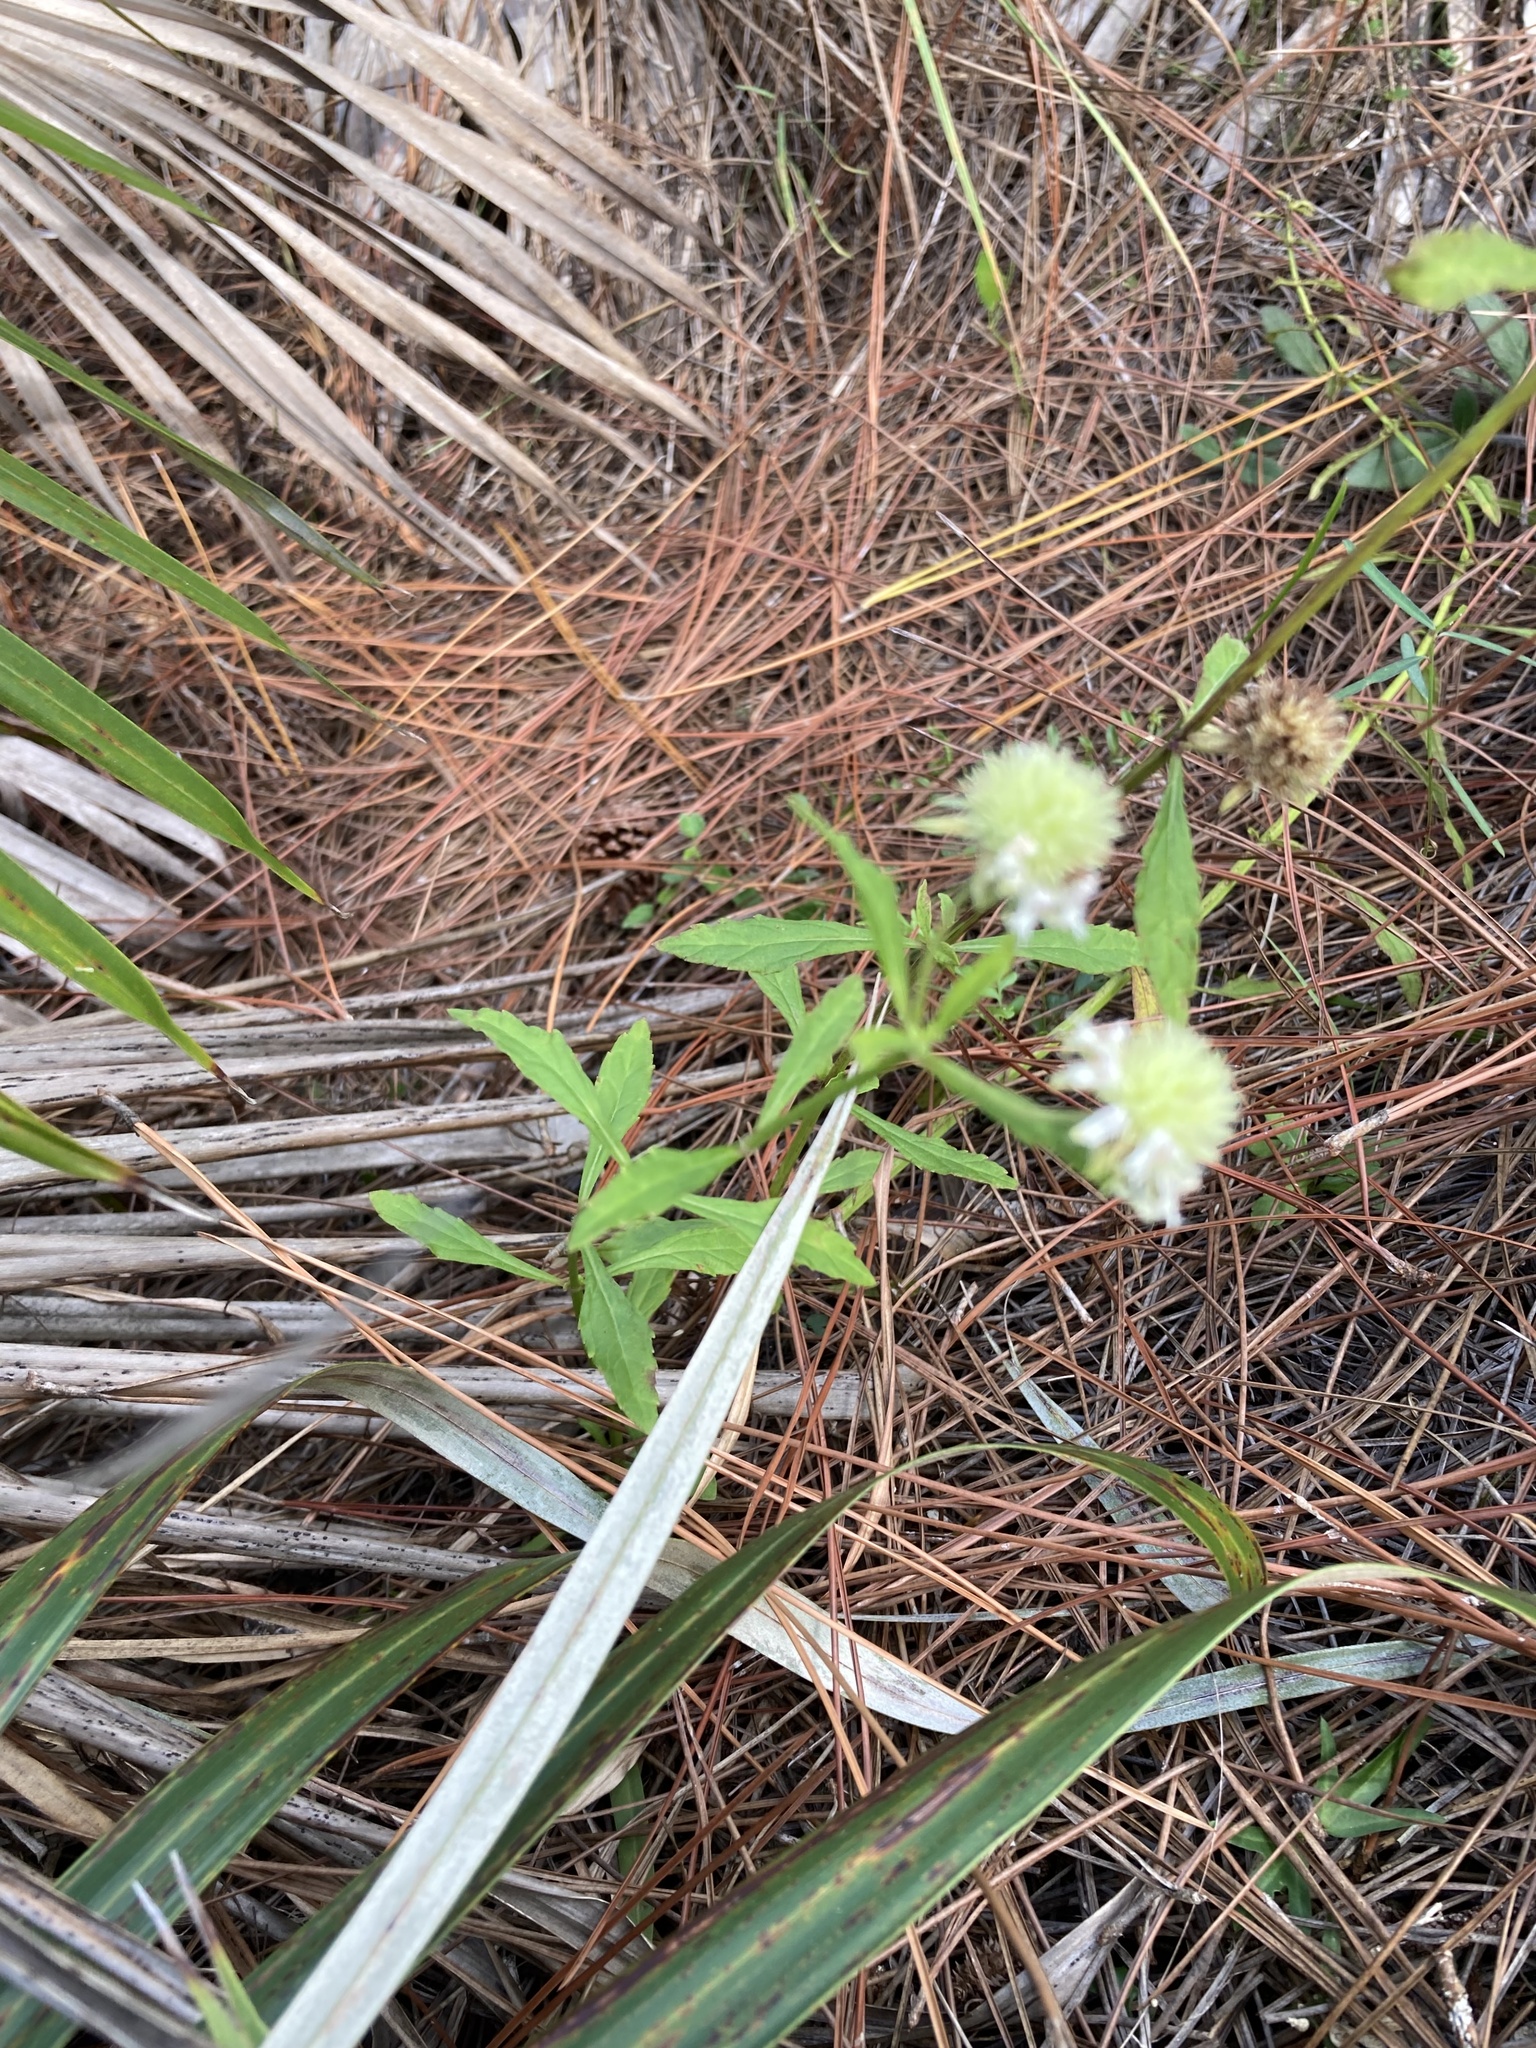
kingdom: Plantae
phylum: Tracheophyta
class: Magnoliopsida
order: Lamiales
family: Lamiaceae
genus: Hyptis
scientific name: Hyptis alata
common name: Cluster bush-mint
